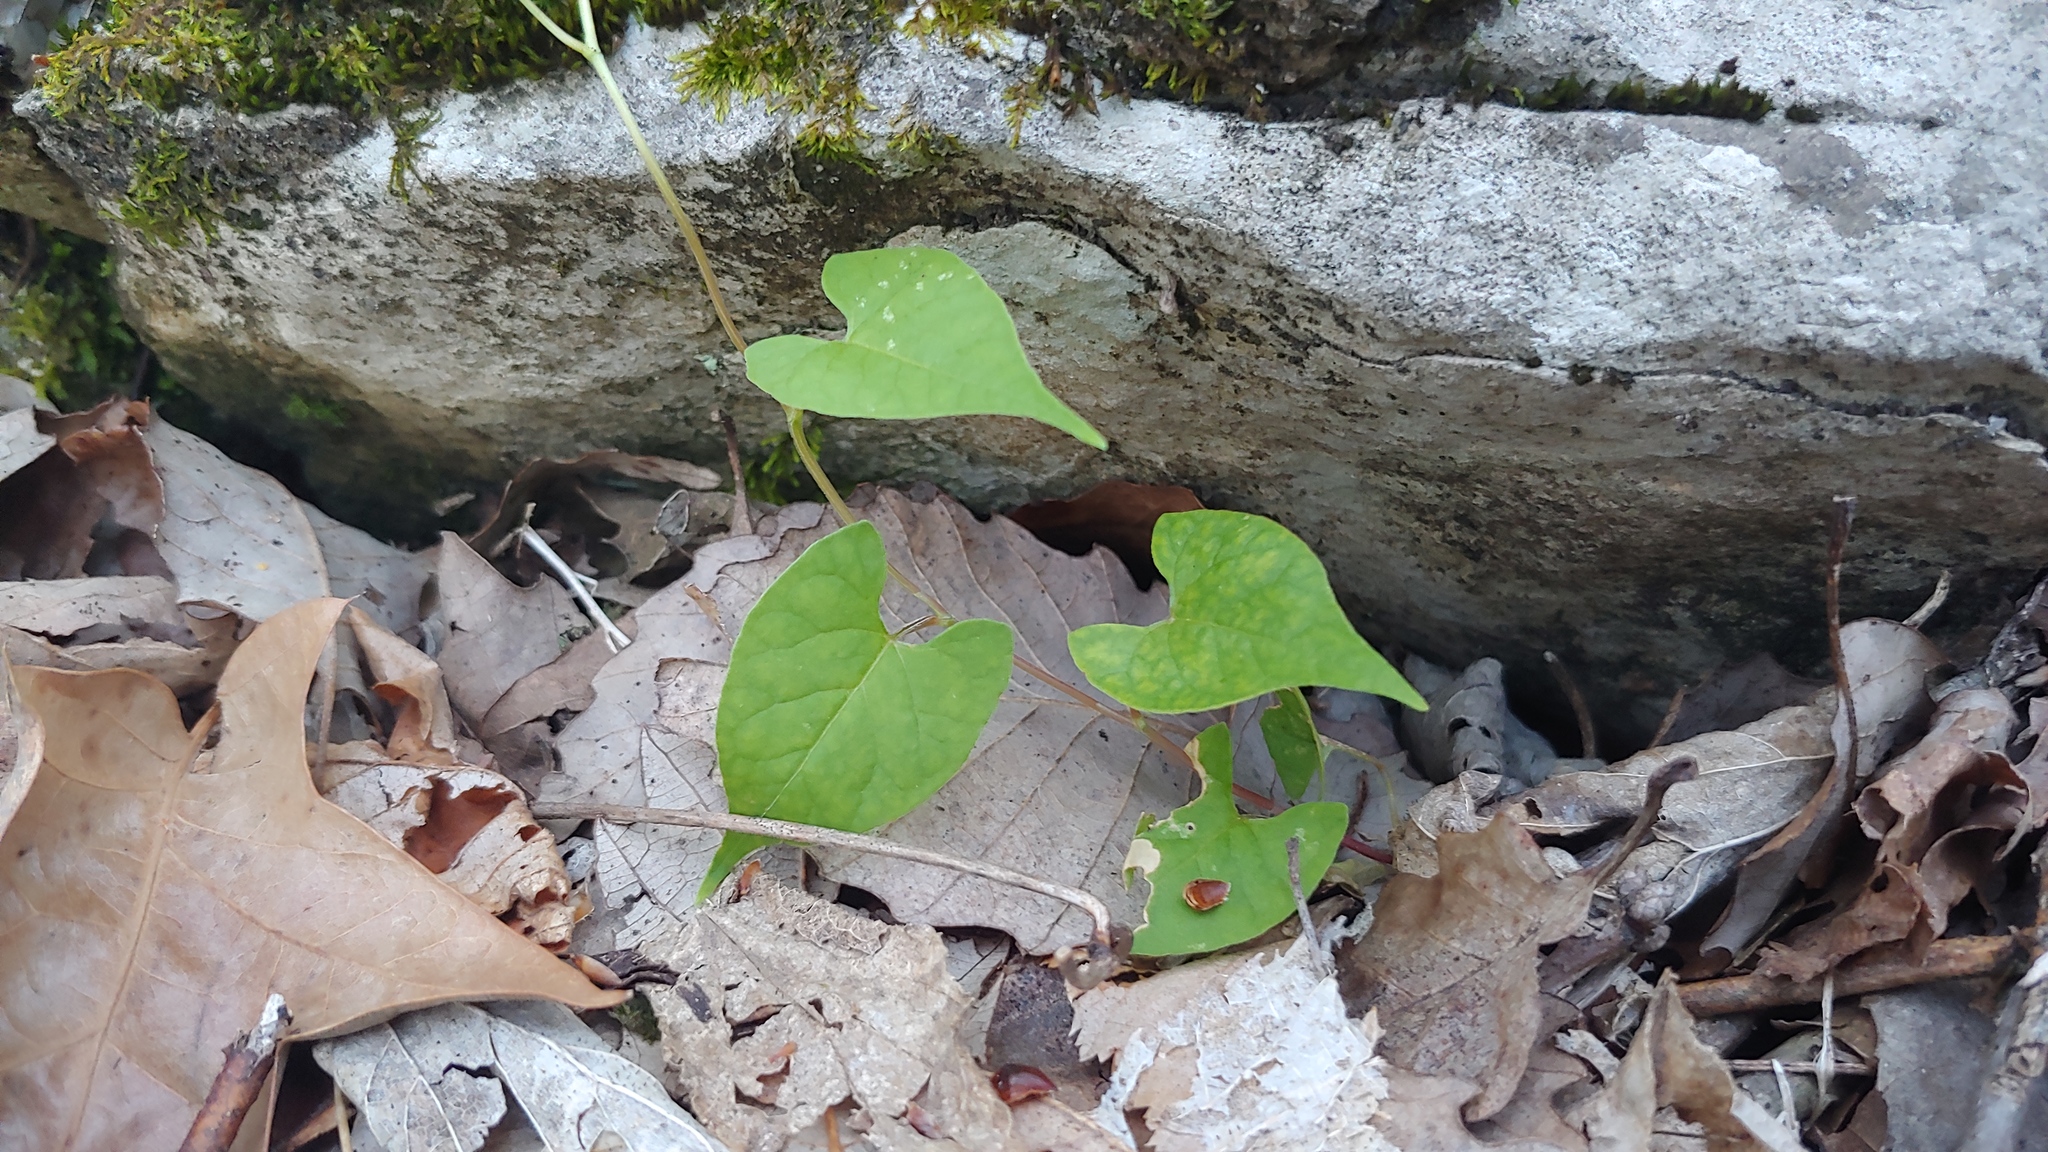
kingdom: Plantae
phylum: Tracheophyta
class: Magnoliopsida
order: Caryophyllales
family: Polygonaceae
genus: Fallopia
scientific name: Fallopia scandens
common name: Climbing false buckwheat
